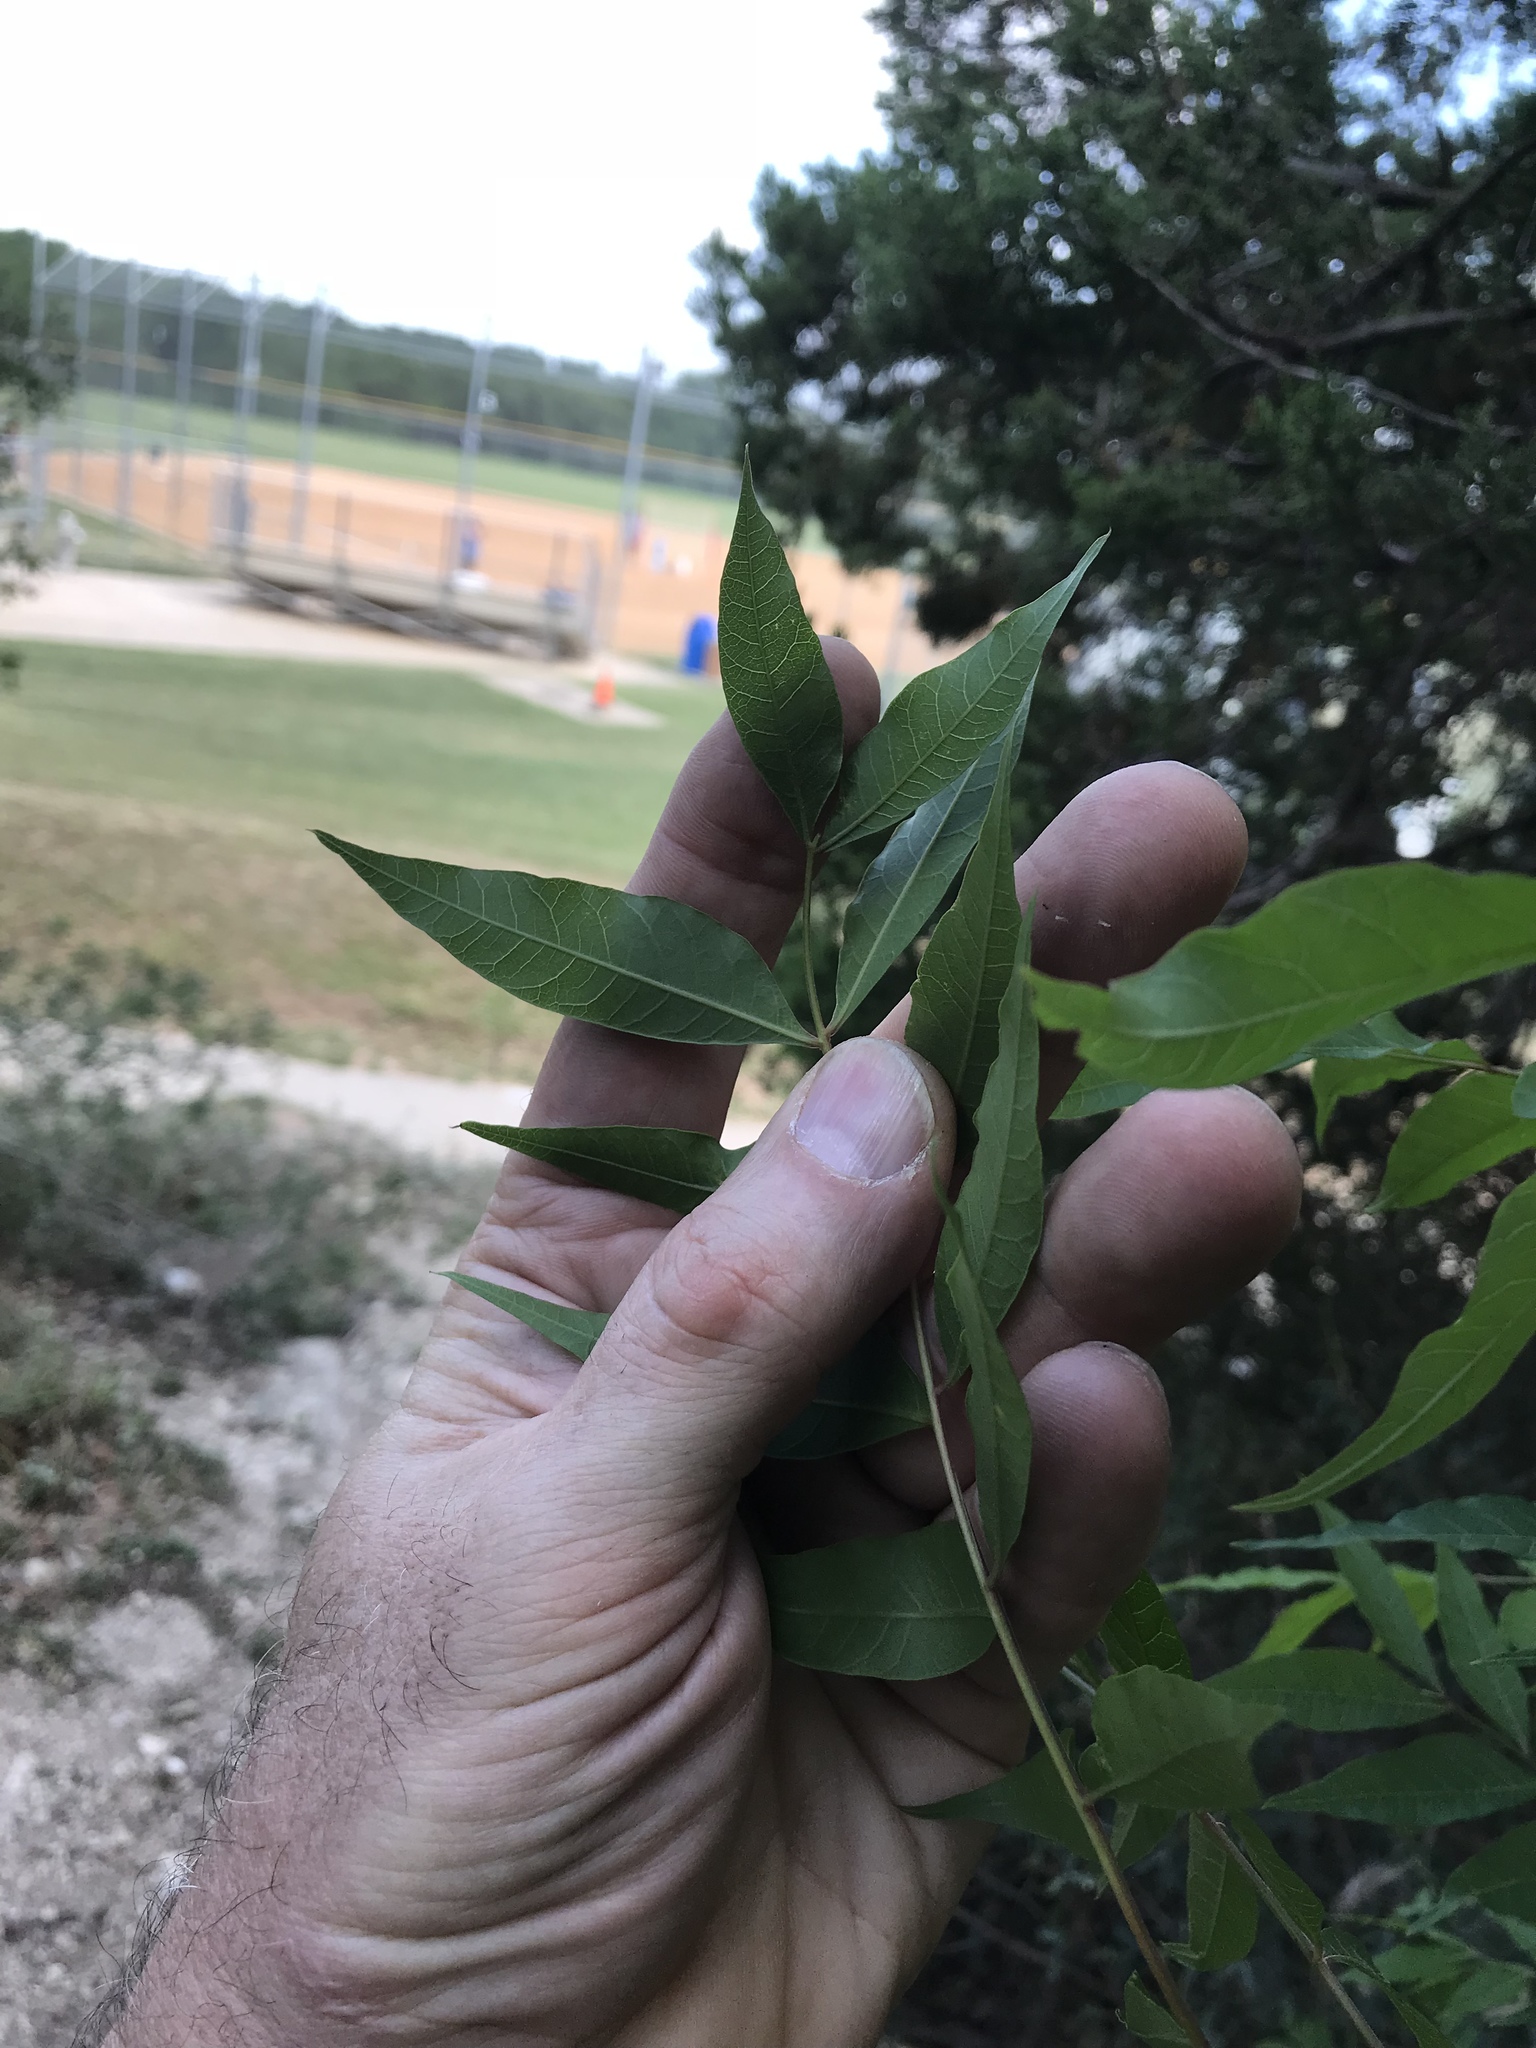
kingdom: Plantae
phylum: Tracheophyta
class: Magnoliopsida
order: Sapindales
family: Anacardiaceae
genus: Pistacia
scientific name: Pistacia chinensis
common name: Chinese pistache
